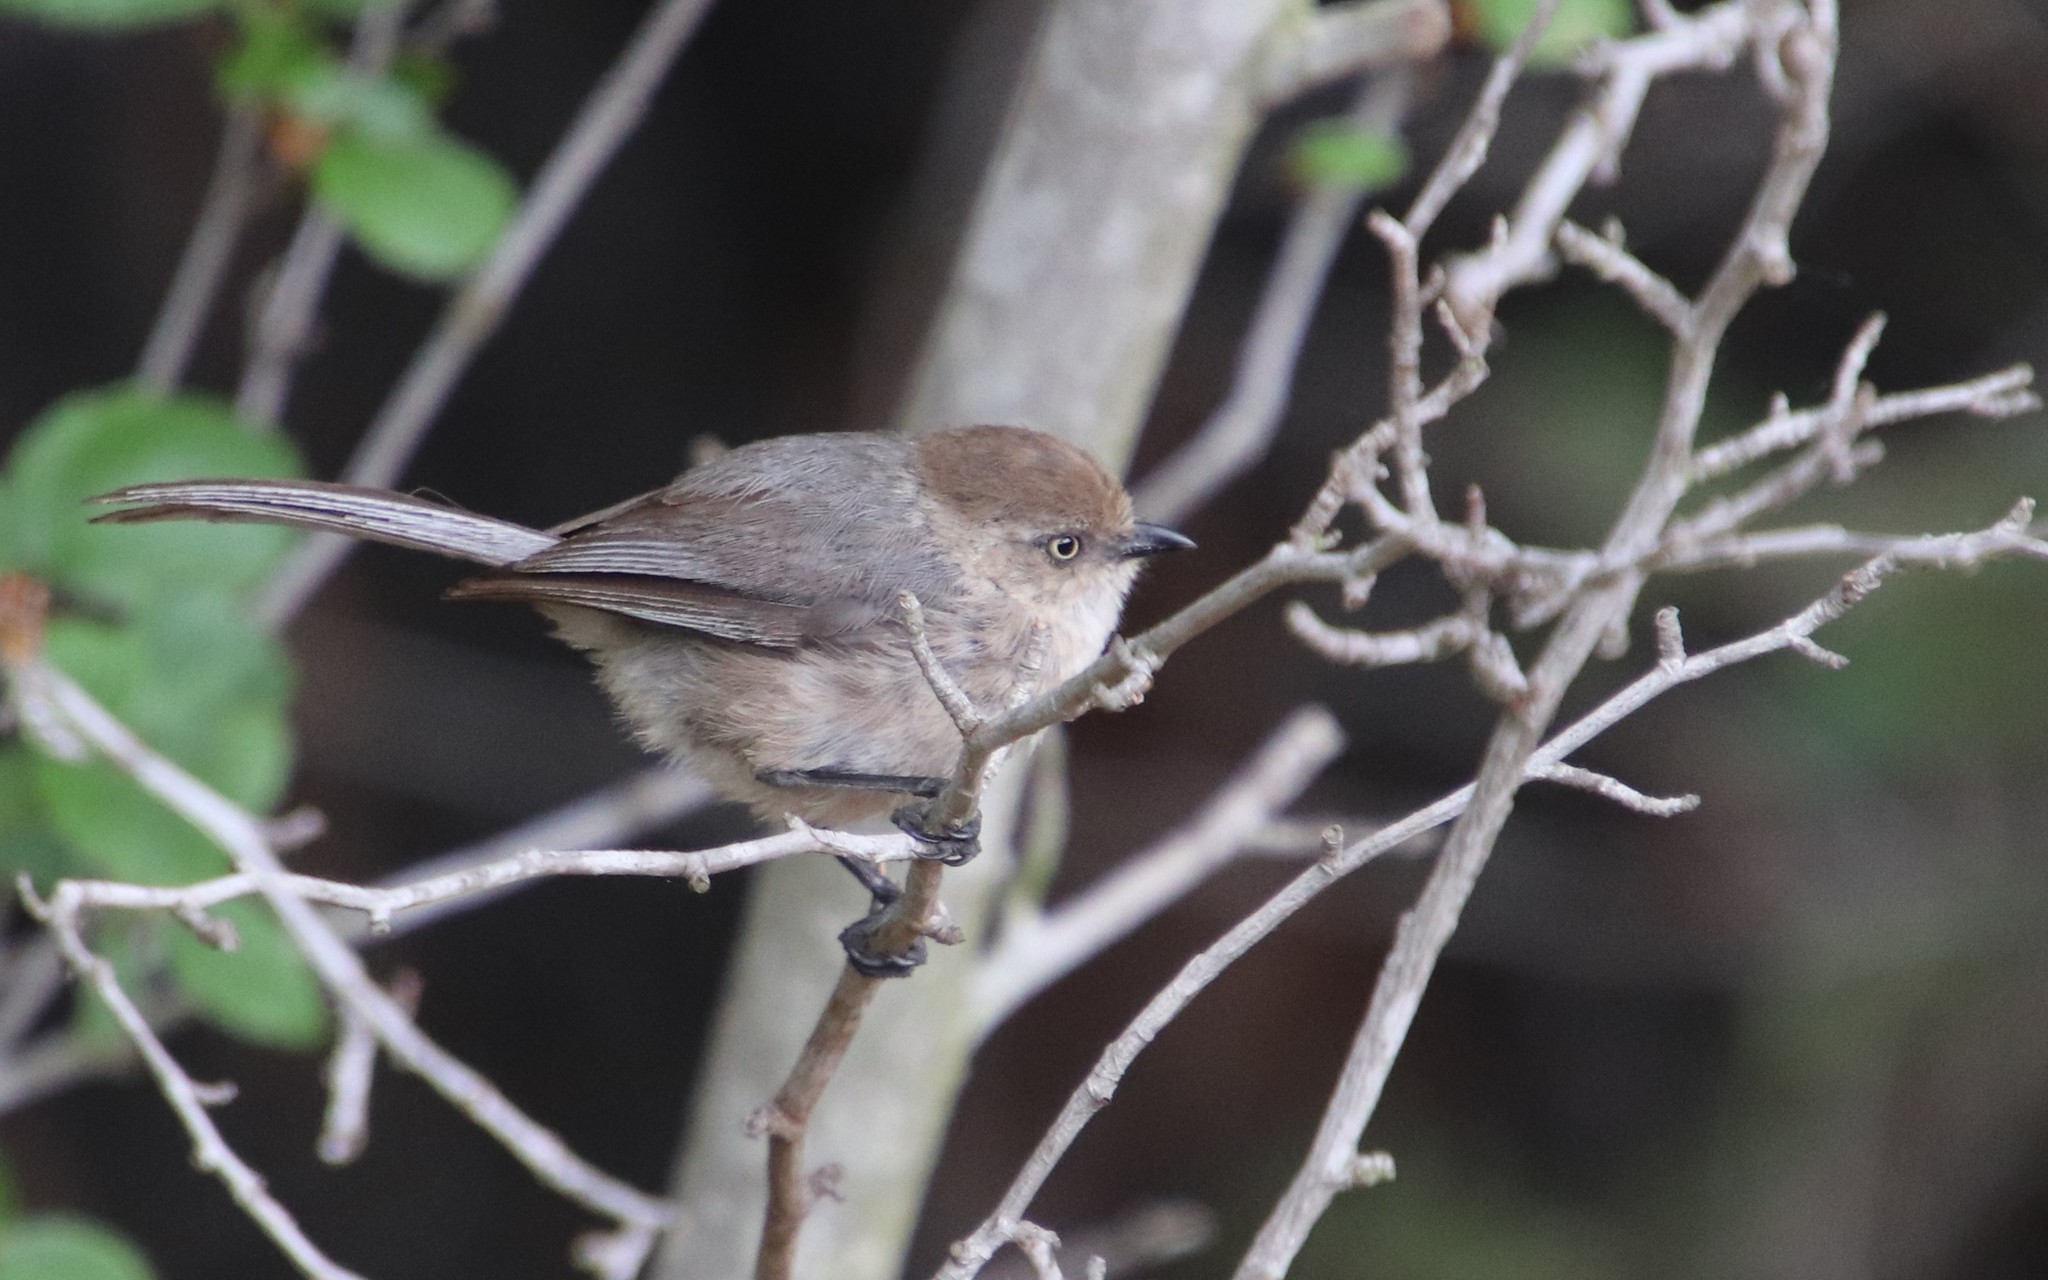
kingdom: Animalia
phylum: Chordata
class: Aves
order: Passeriformes
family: Aegithalidae
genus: Psaltriparus
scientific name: Psaltriparus minimus
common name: American bushtit
